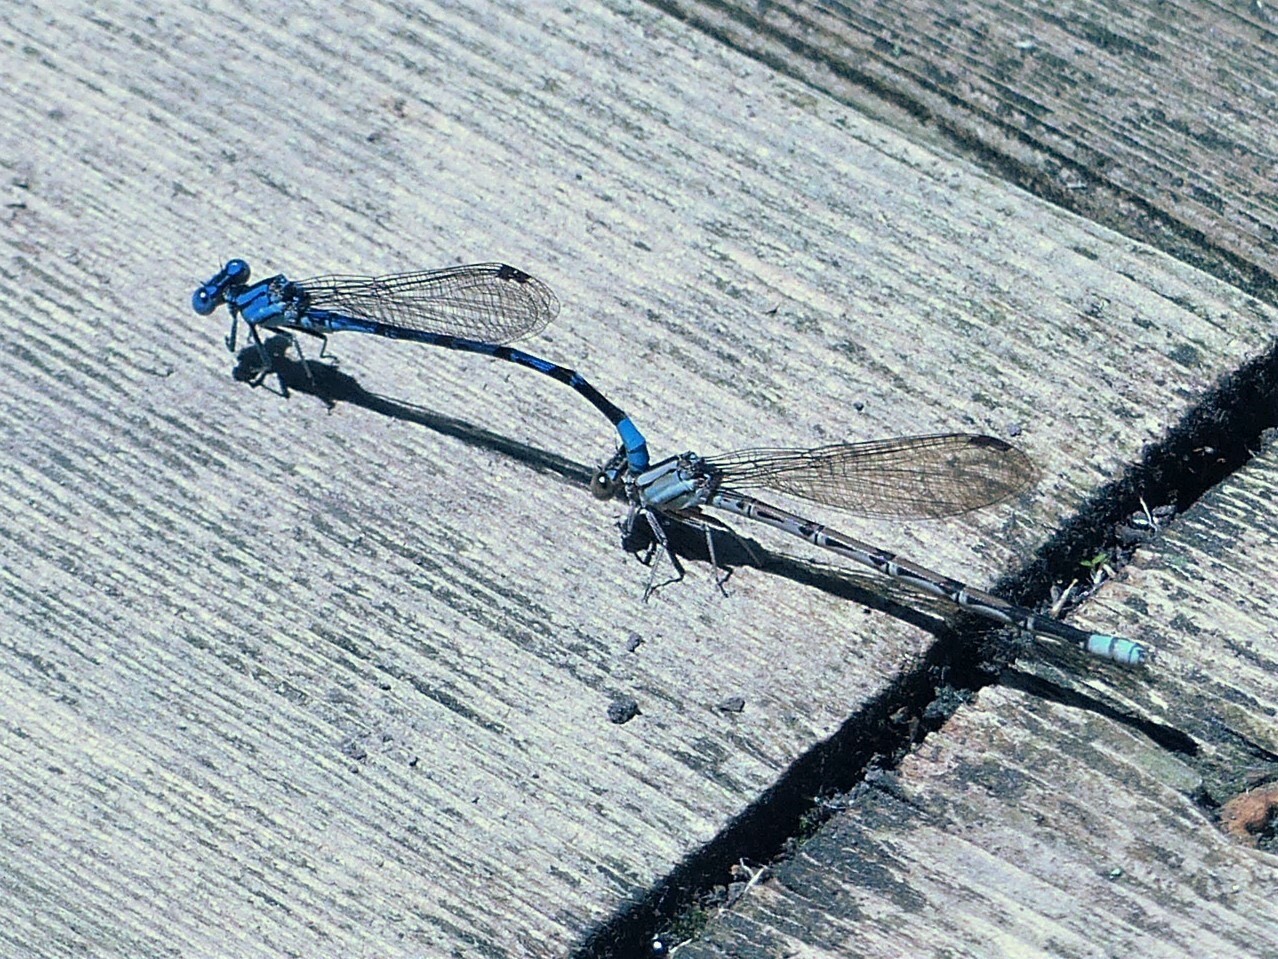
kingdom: Animalia
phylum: Arthropoda
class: Insecta
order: Odonata
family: Coenagrionidae
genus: Argia
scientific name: Argia funebris
